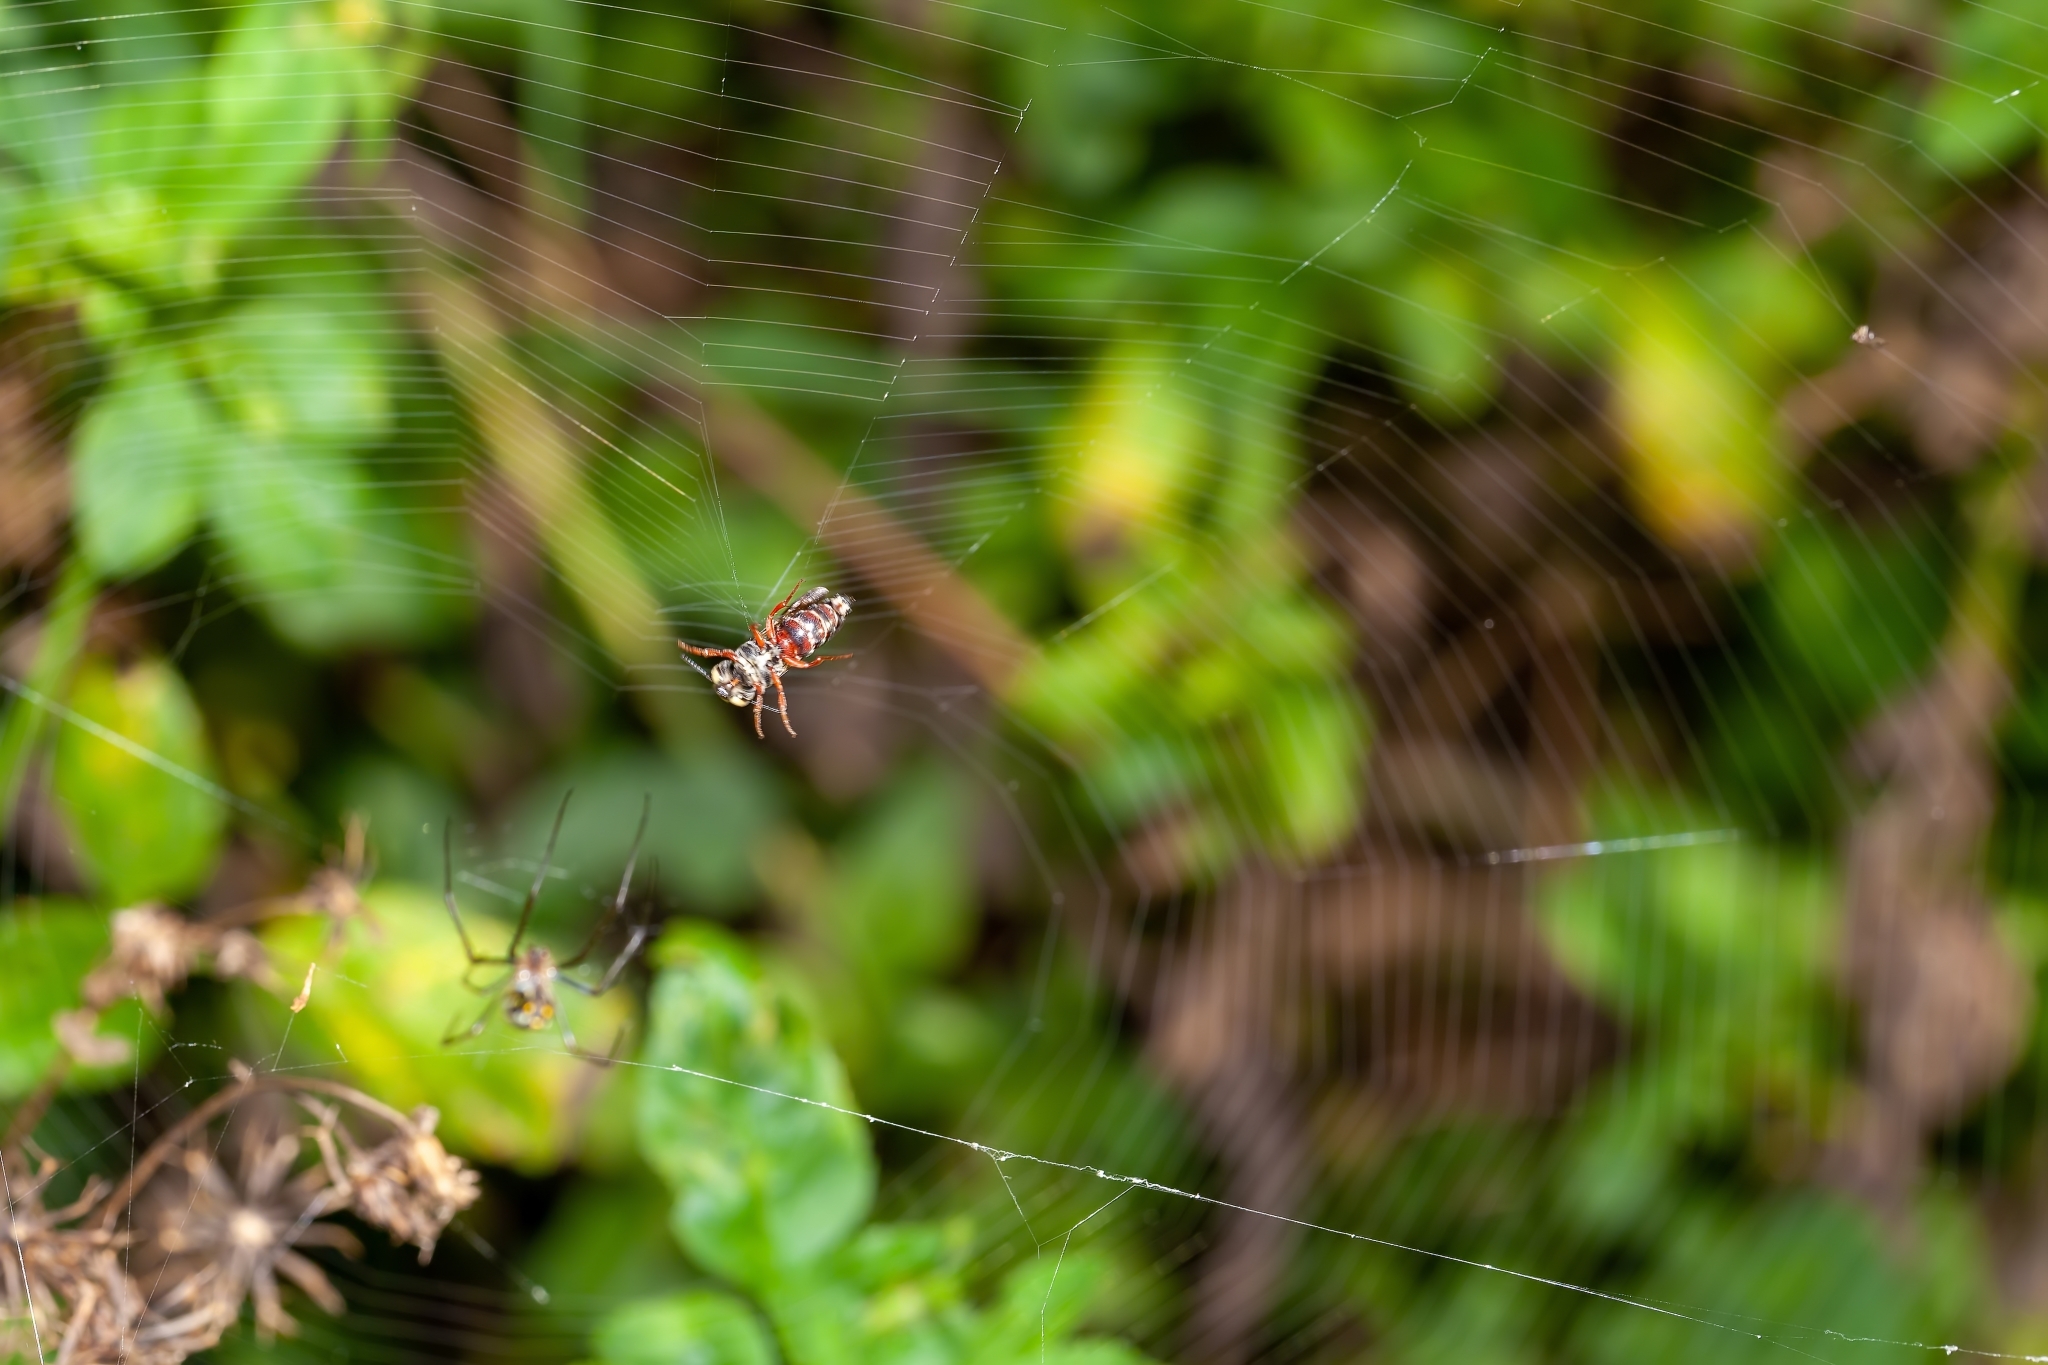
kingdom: Animalia
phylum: Arthropoda
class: Insecta
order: Hymenoptera
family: Megachilidae
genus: Coelioxys
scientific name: Coelioxys slossoni
